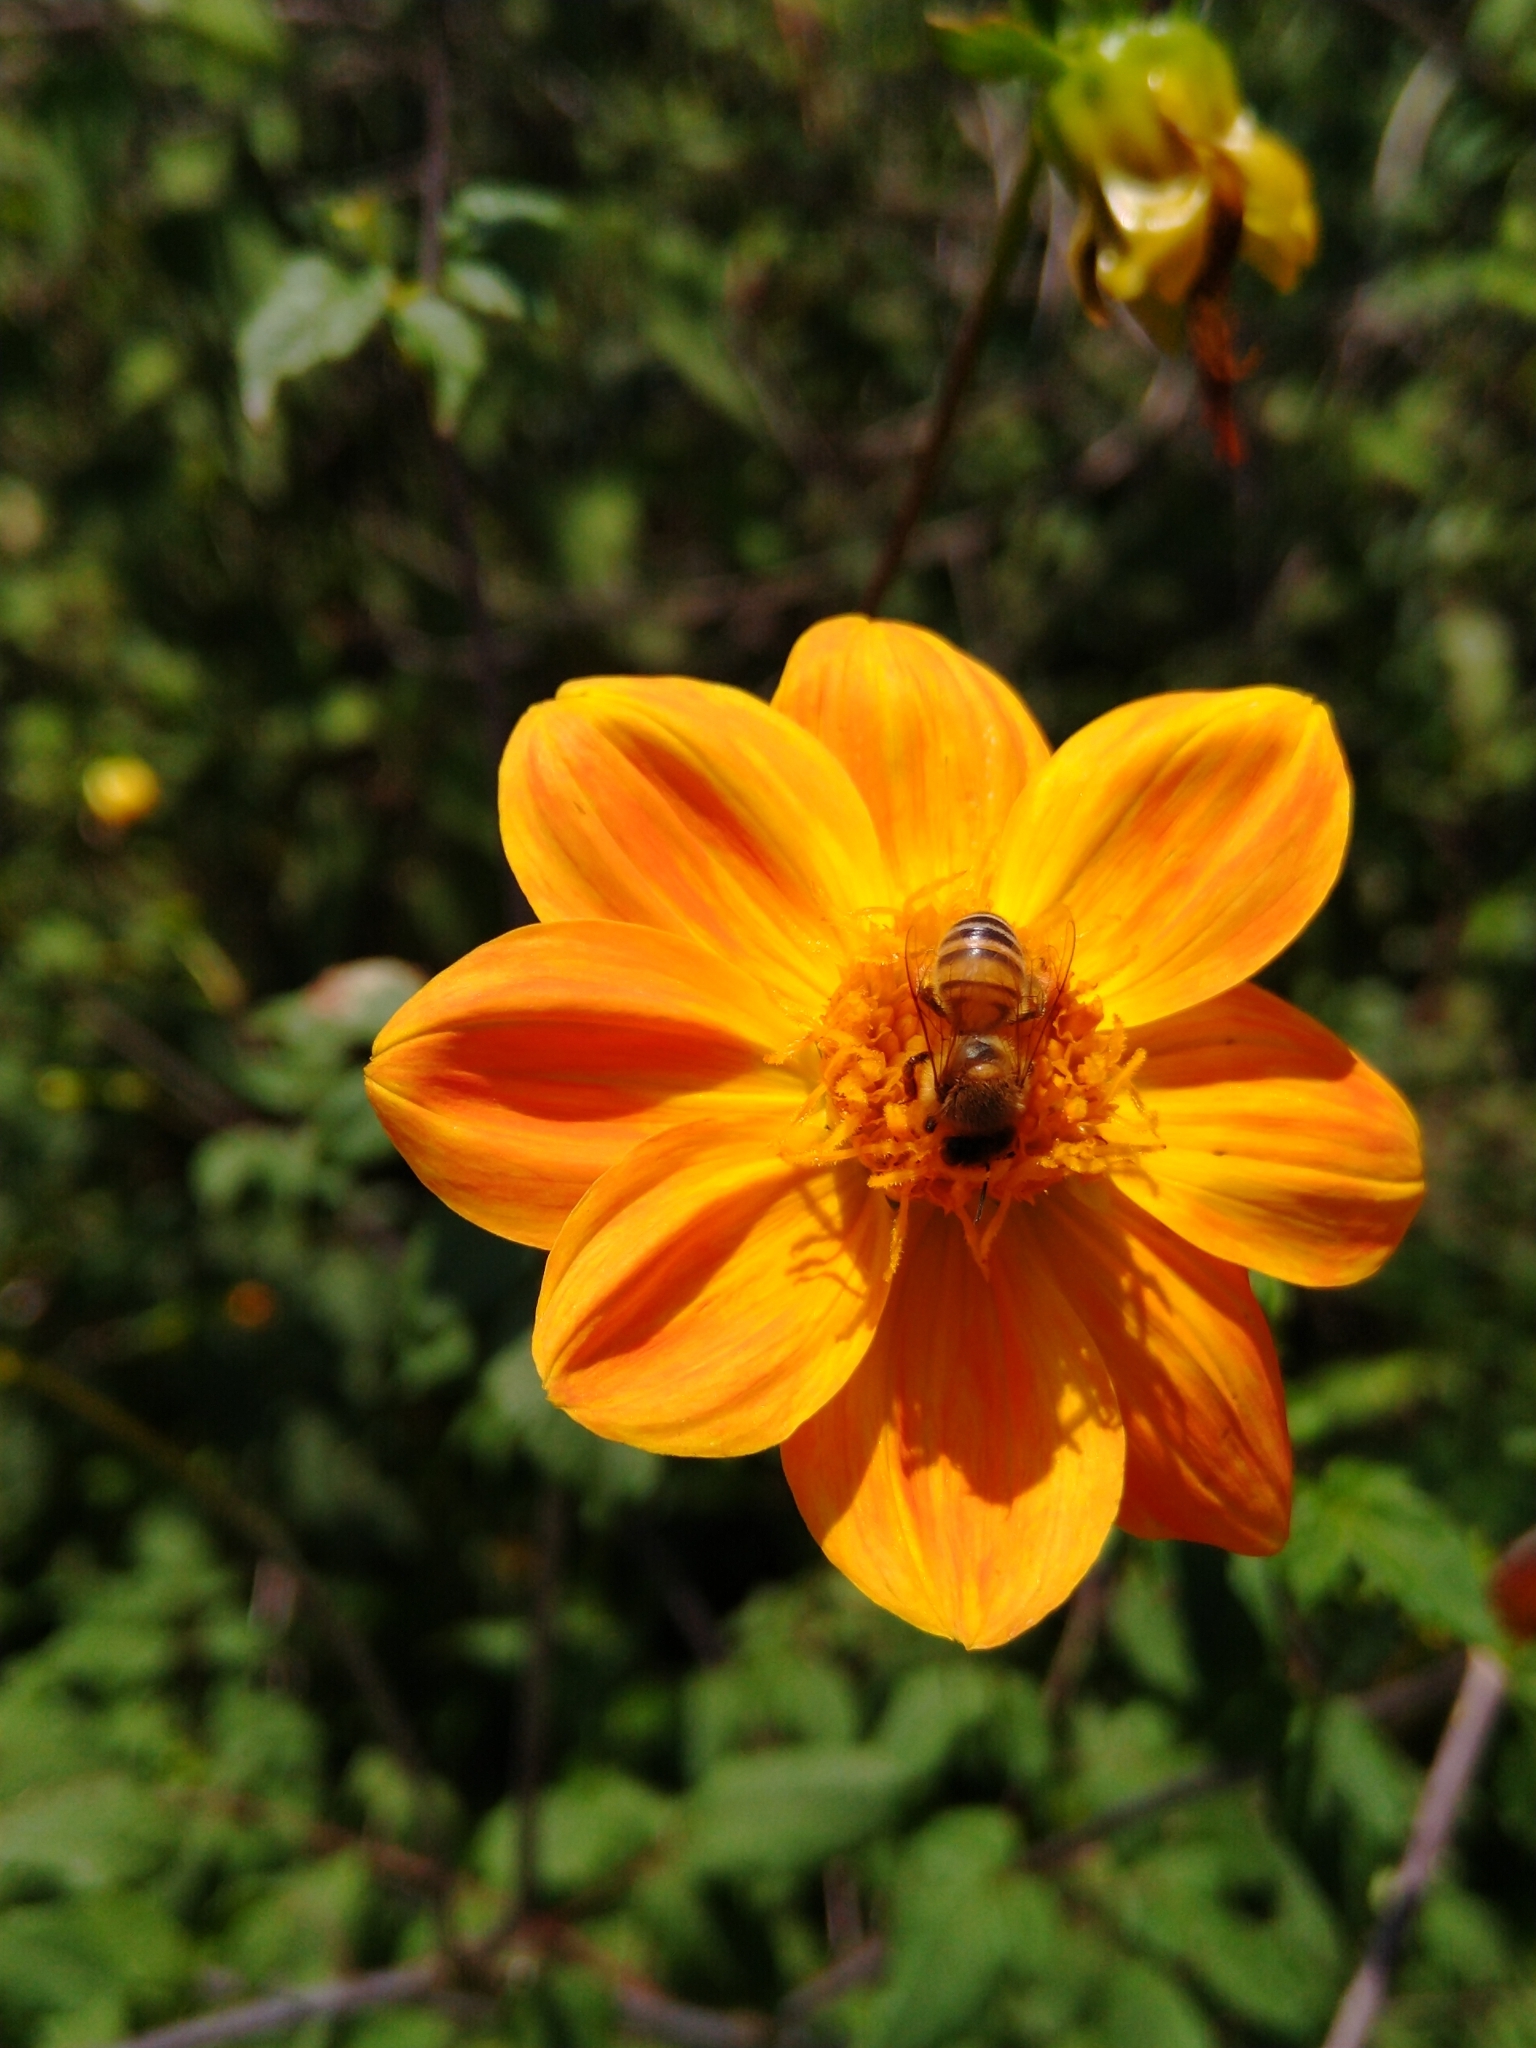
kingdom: Animalia
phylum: Arthropoda
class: Insecta
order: Hymenoptera
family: Apidae
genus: Apis
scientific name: Apis mellifera
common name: Honey bee
